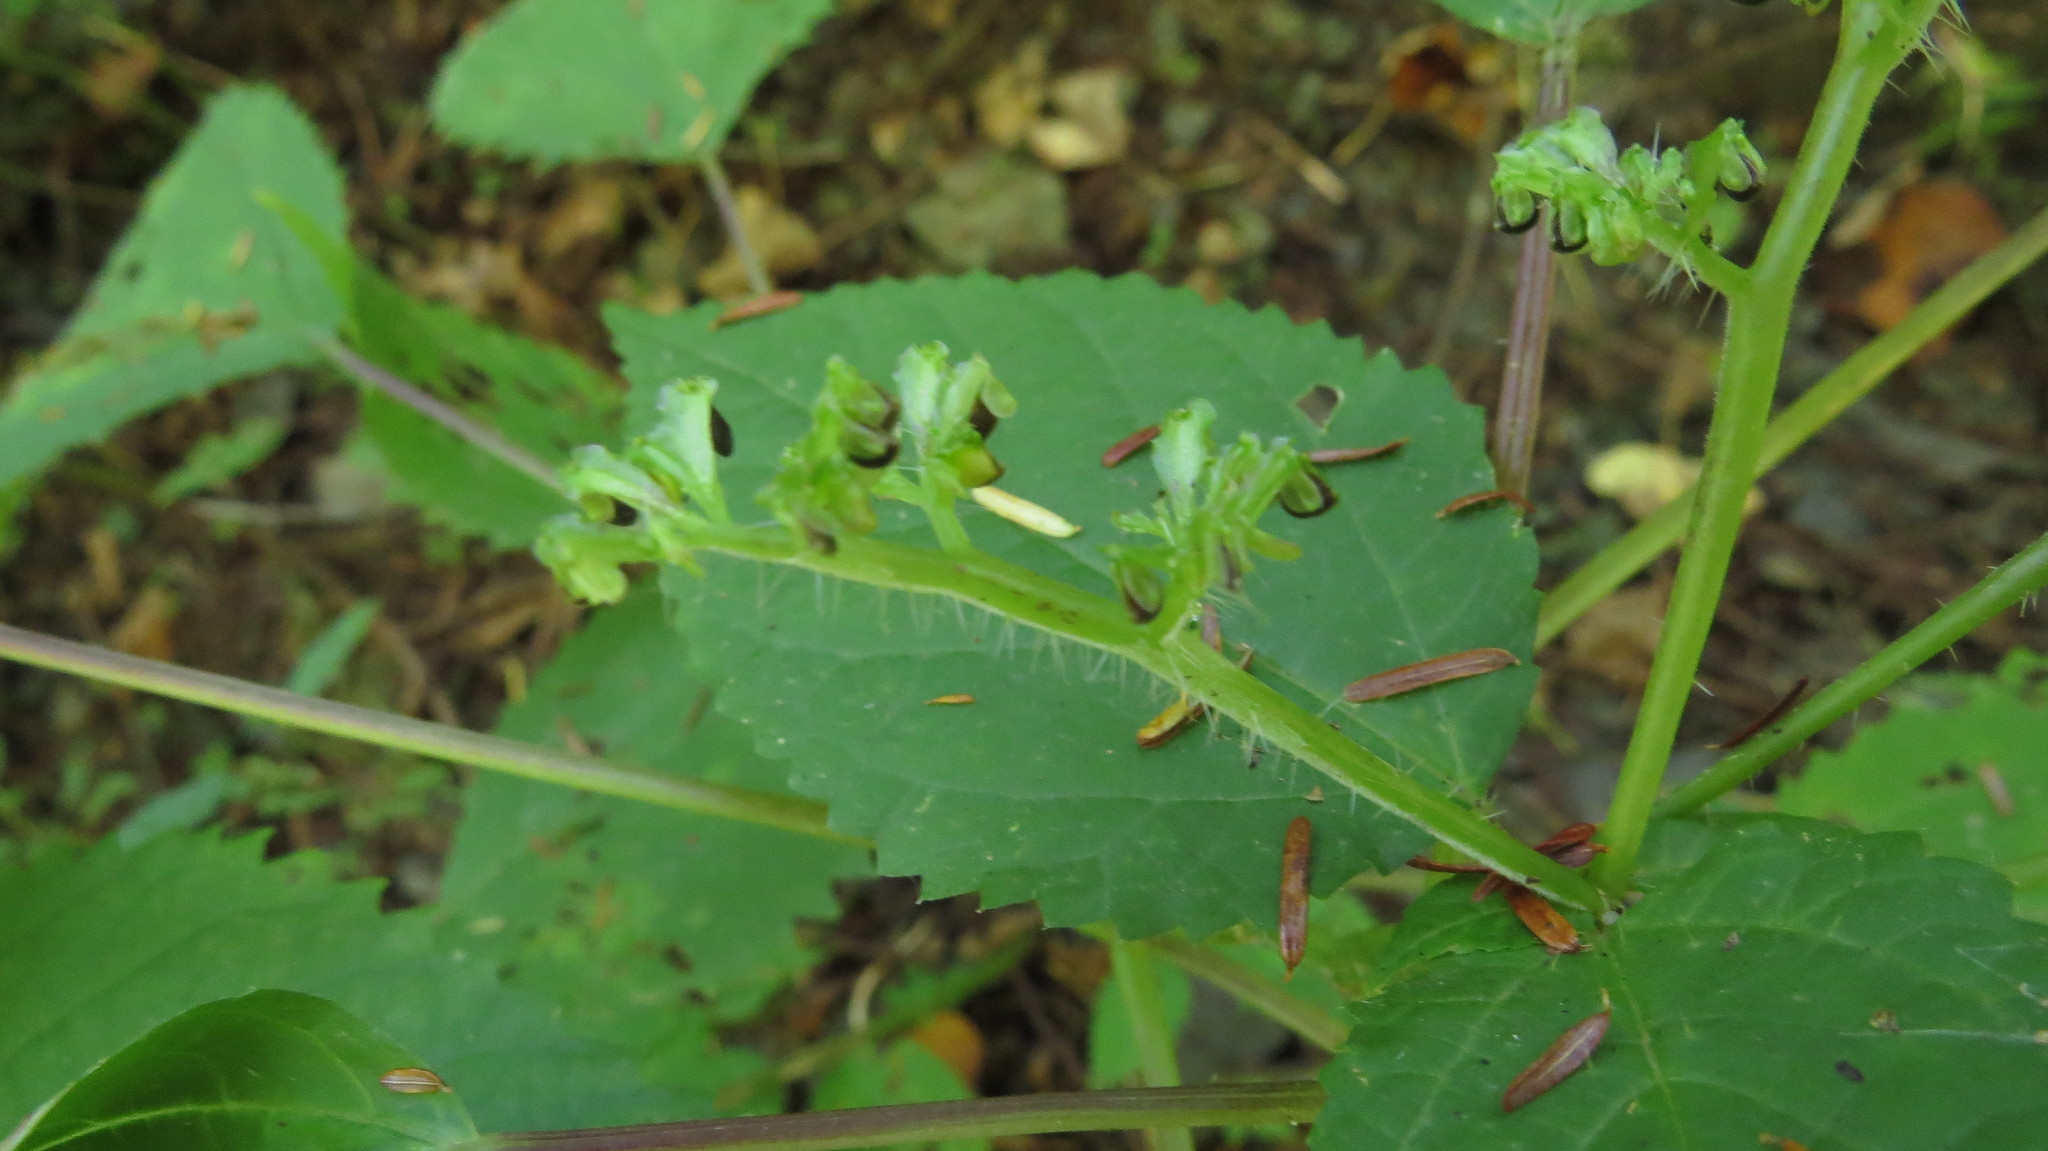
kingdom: Plantae
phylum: Tracheophyta
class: Magnoliopsida
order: Rosales
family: Urticaceae
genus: Laportea
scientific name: Laportea canadensis
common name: Canada nettle
